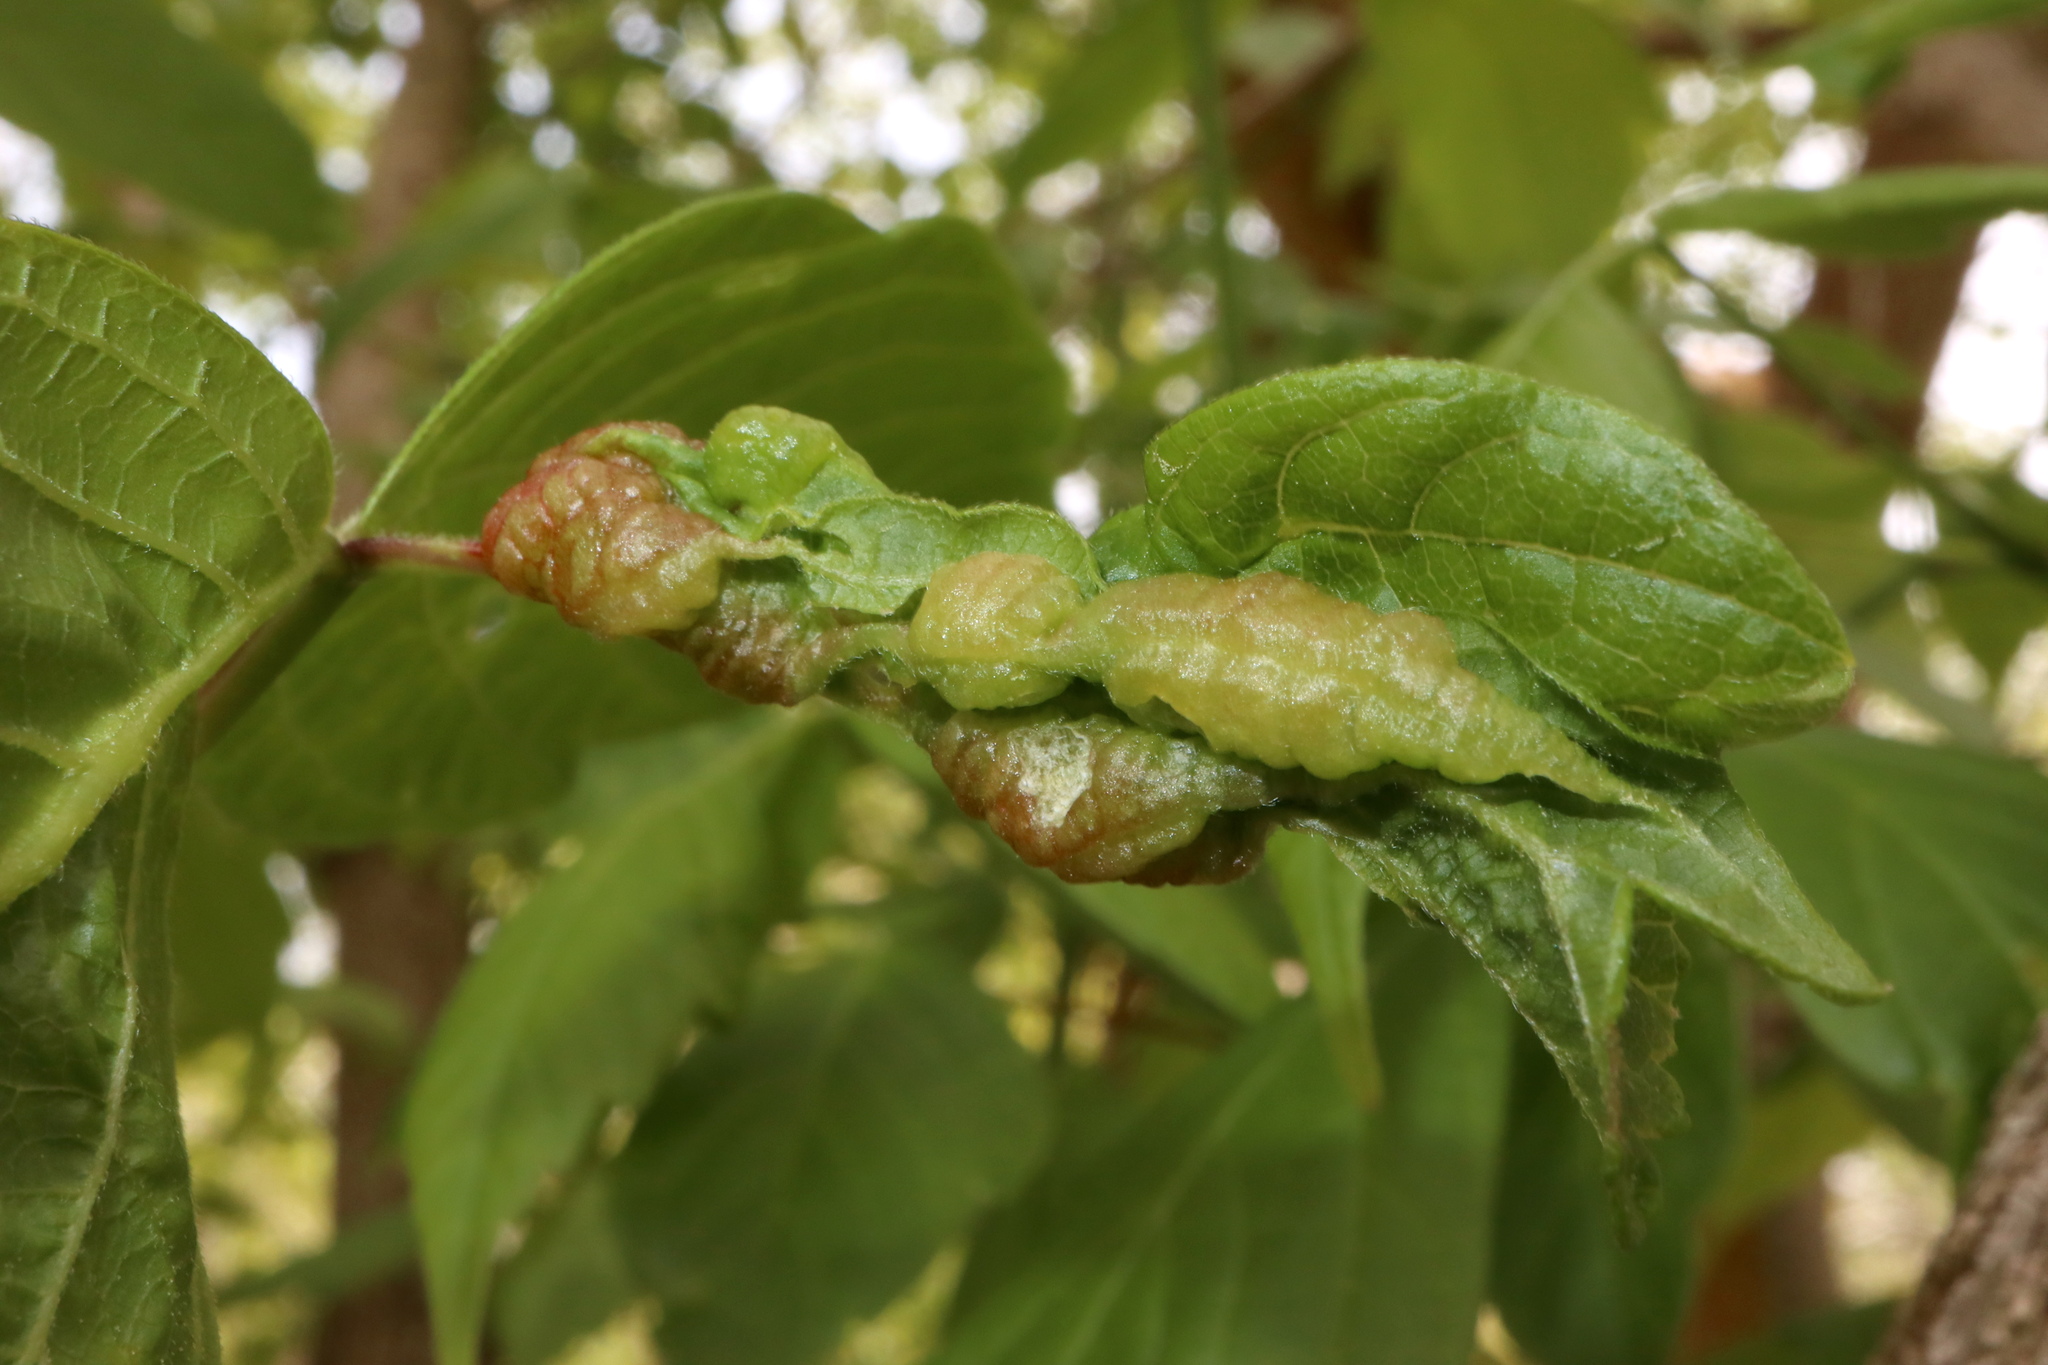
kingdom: Animalia
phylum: Arthropoda
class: Insecta
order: Diptera
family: Cecidomyiidae
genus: Contarinia
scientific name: Contarinia negundinis
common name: Boxelder budgall midge
